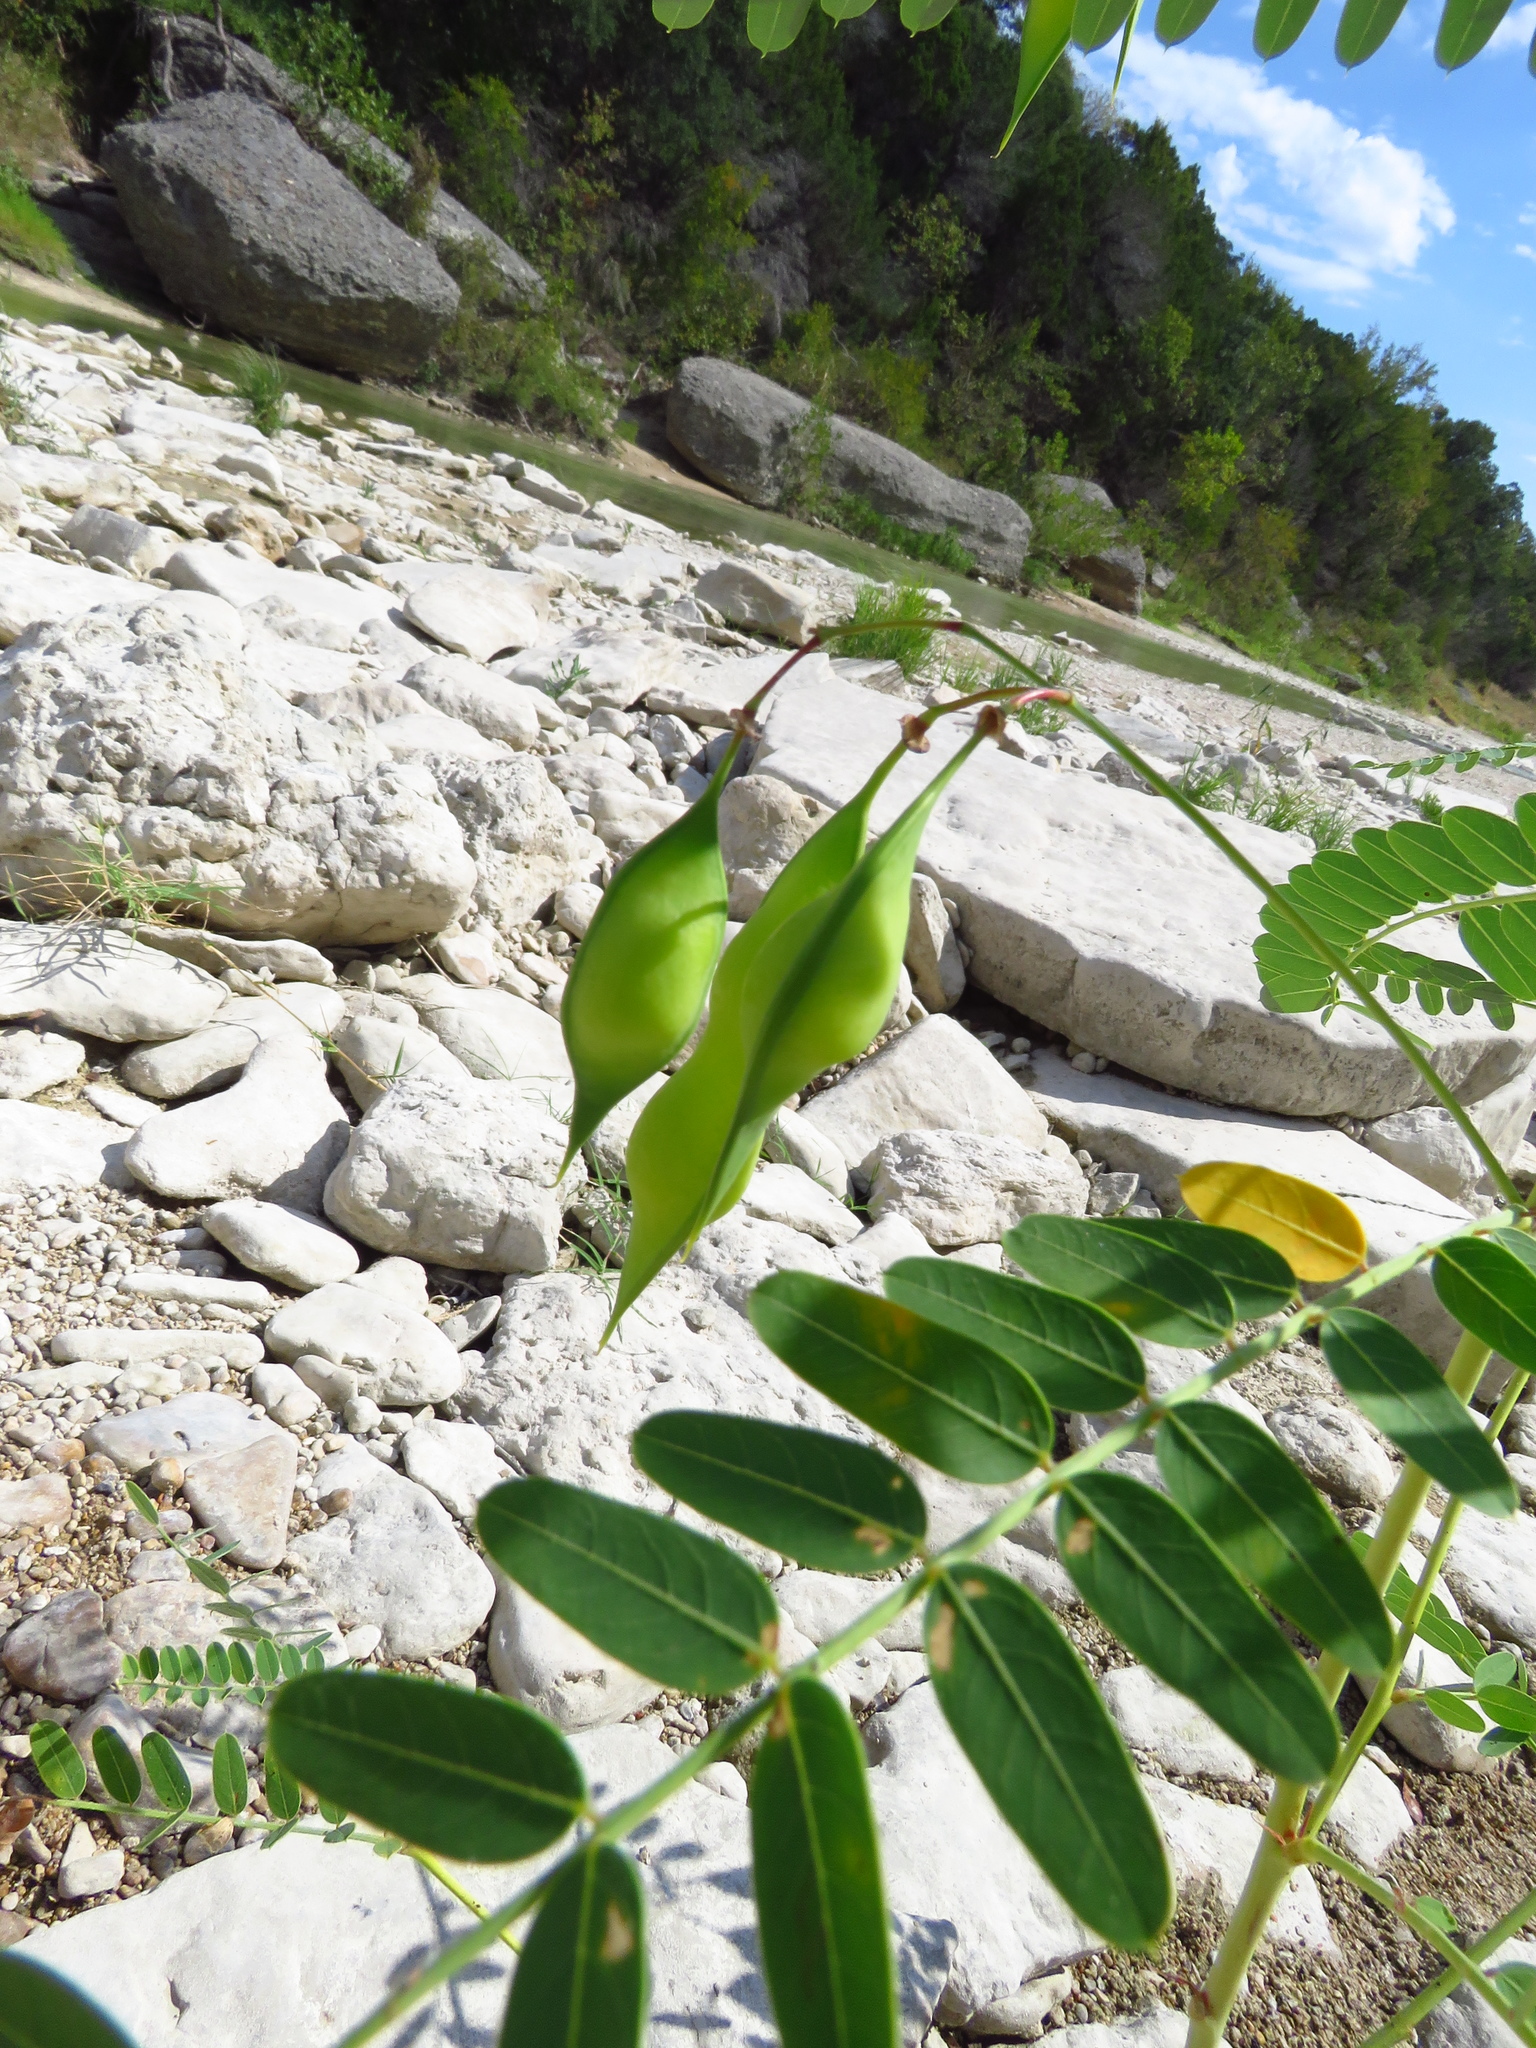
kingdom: Plantae
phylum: Tracheophyta
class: Magnoliopsida
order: Fabales
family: Fabaceae
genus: Sesbania
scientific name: Sesbania vesicaria
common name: Bagpod
